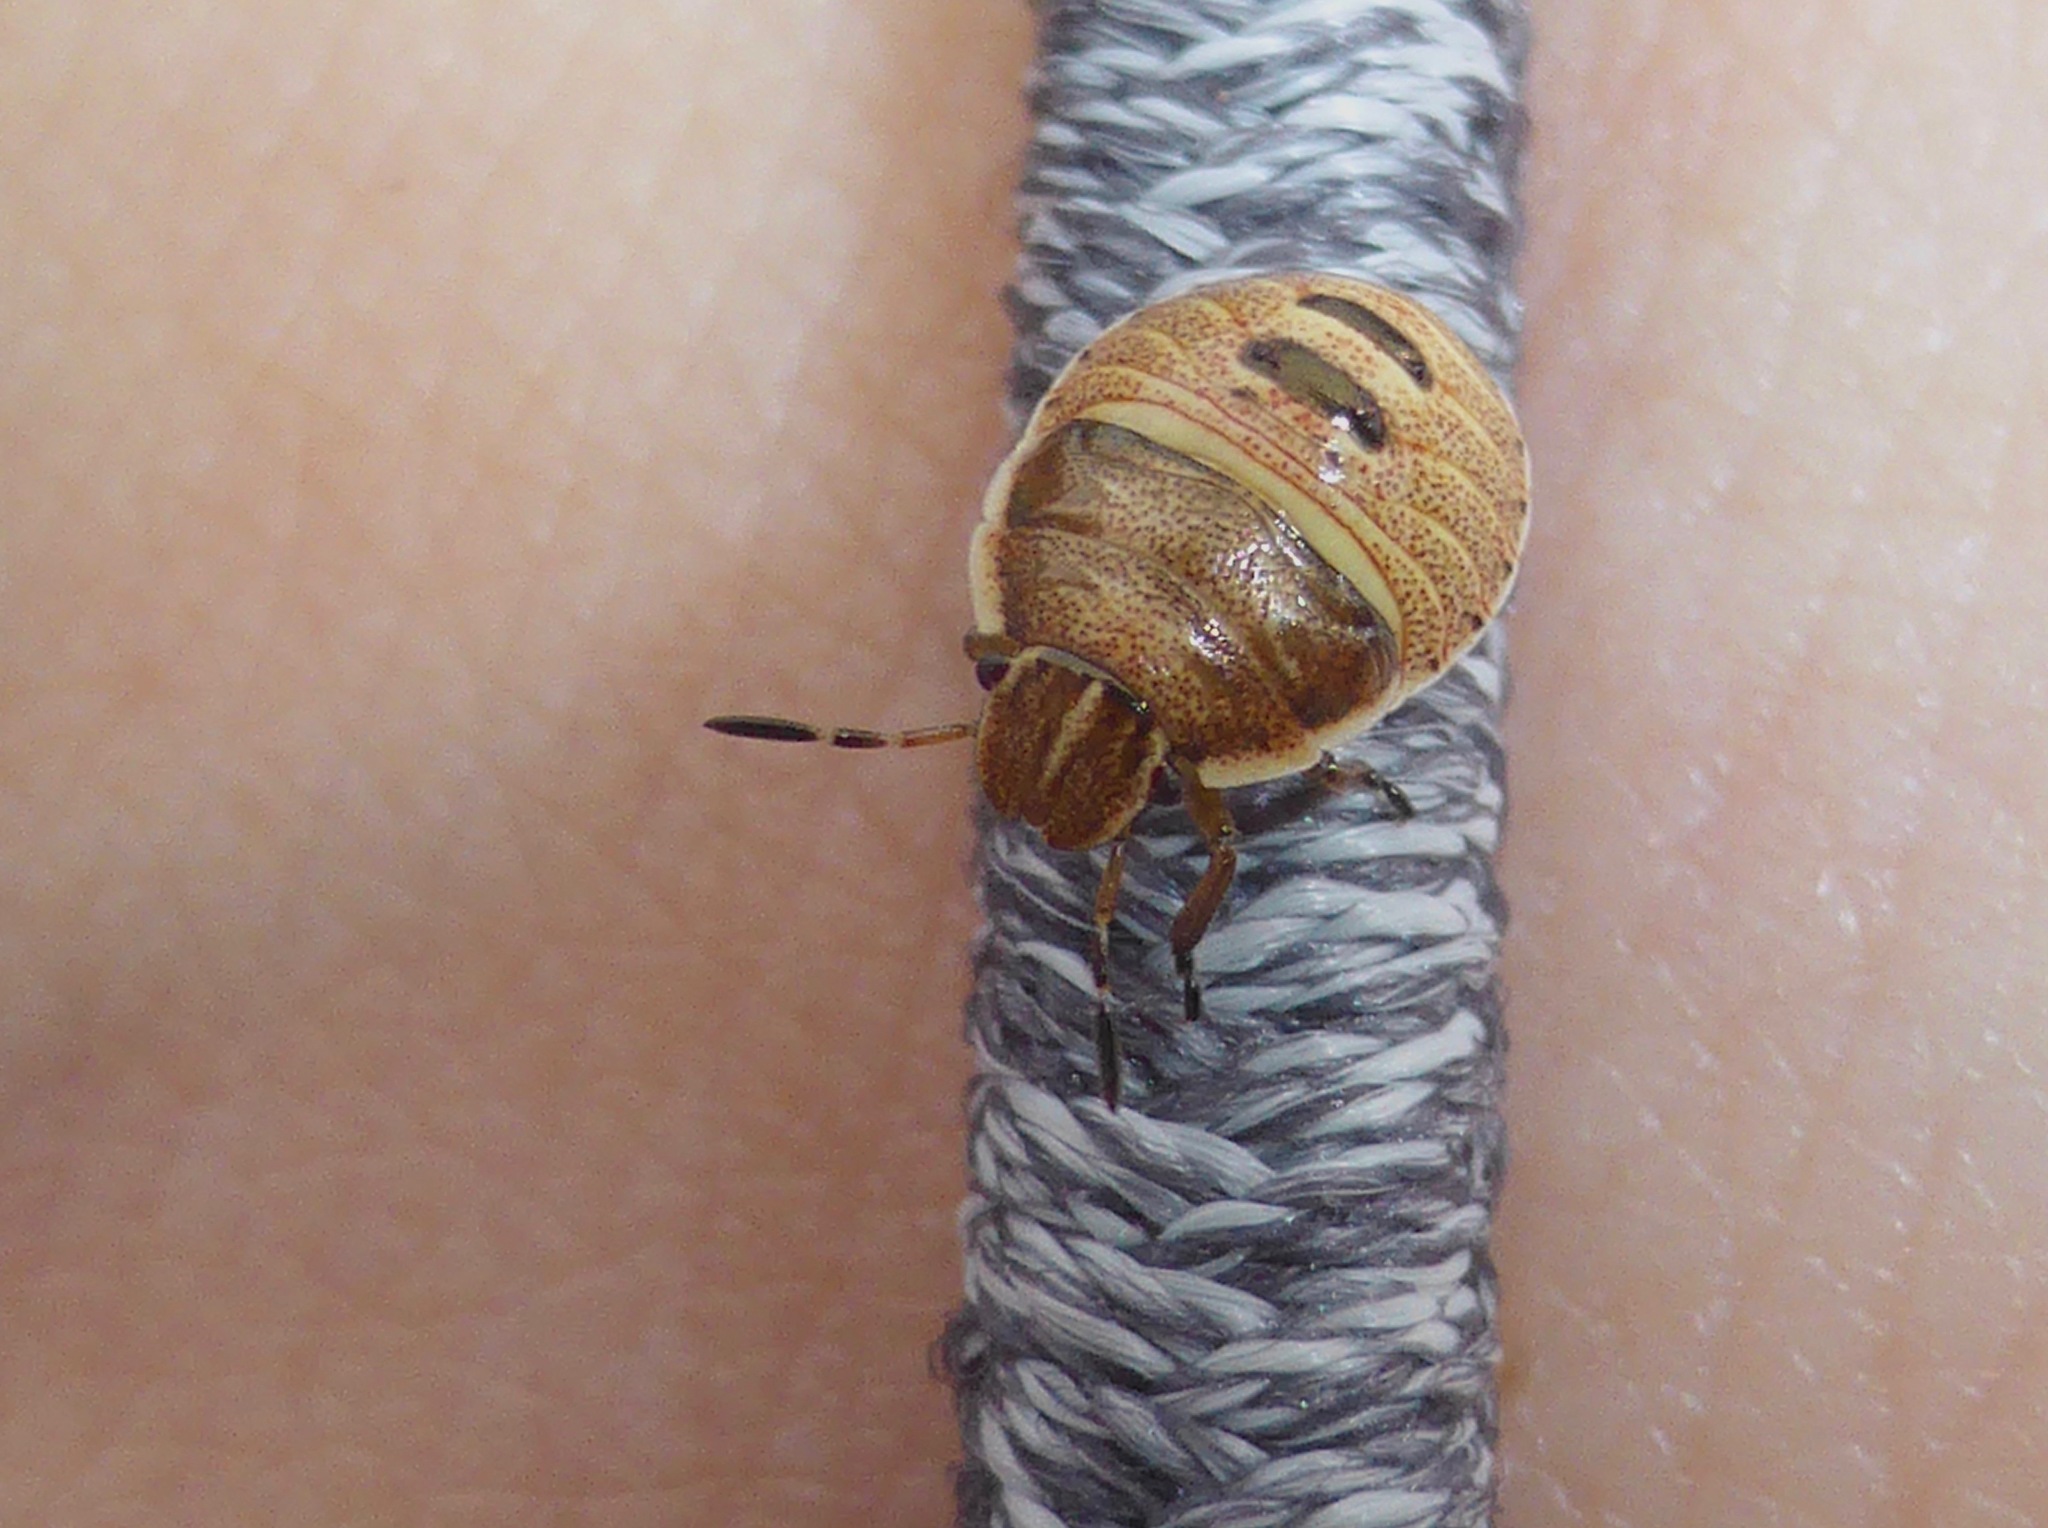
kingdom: Animalia
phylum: Arthropoda
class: Insecta
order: Hemiptera
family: Pentatomidae
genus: Dictyotus
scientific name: Dictyotus caenosus
